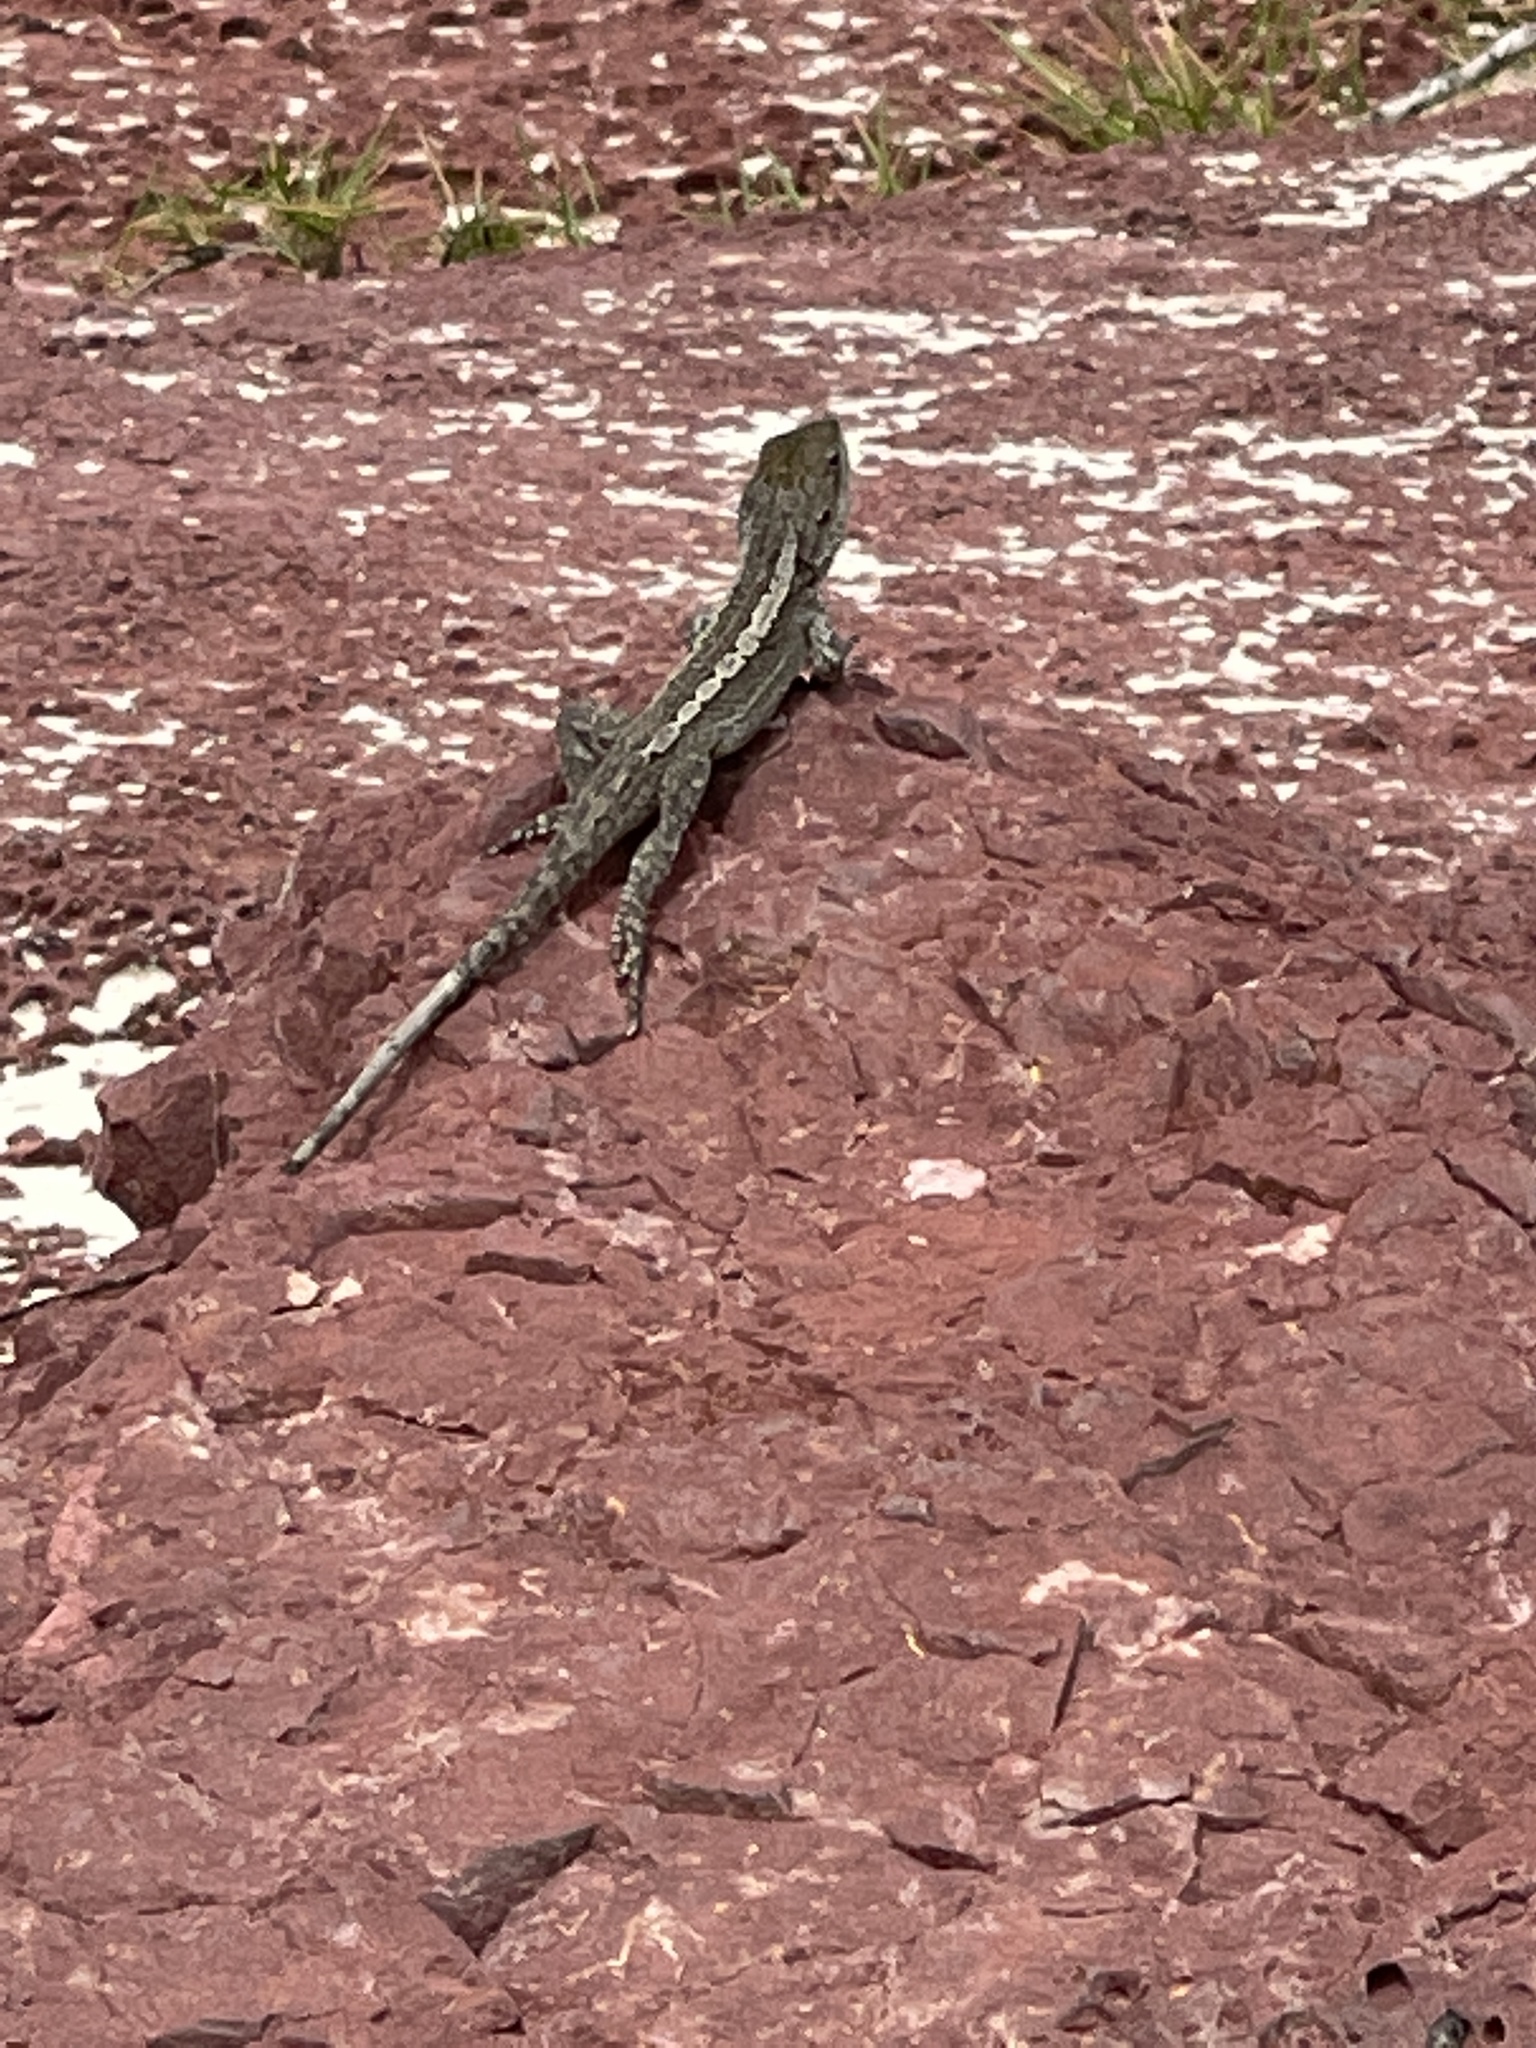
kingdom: Animalia
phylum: Chordata
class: Squamata
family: Agamidae
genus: Amphibolurus
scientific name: Amphibolurus muricatus
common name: Jacky lizard
